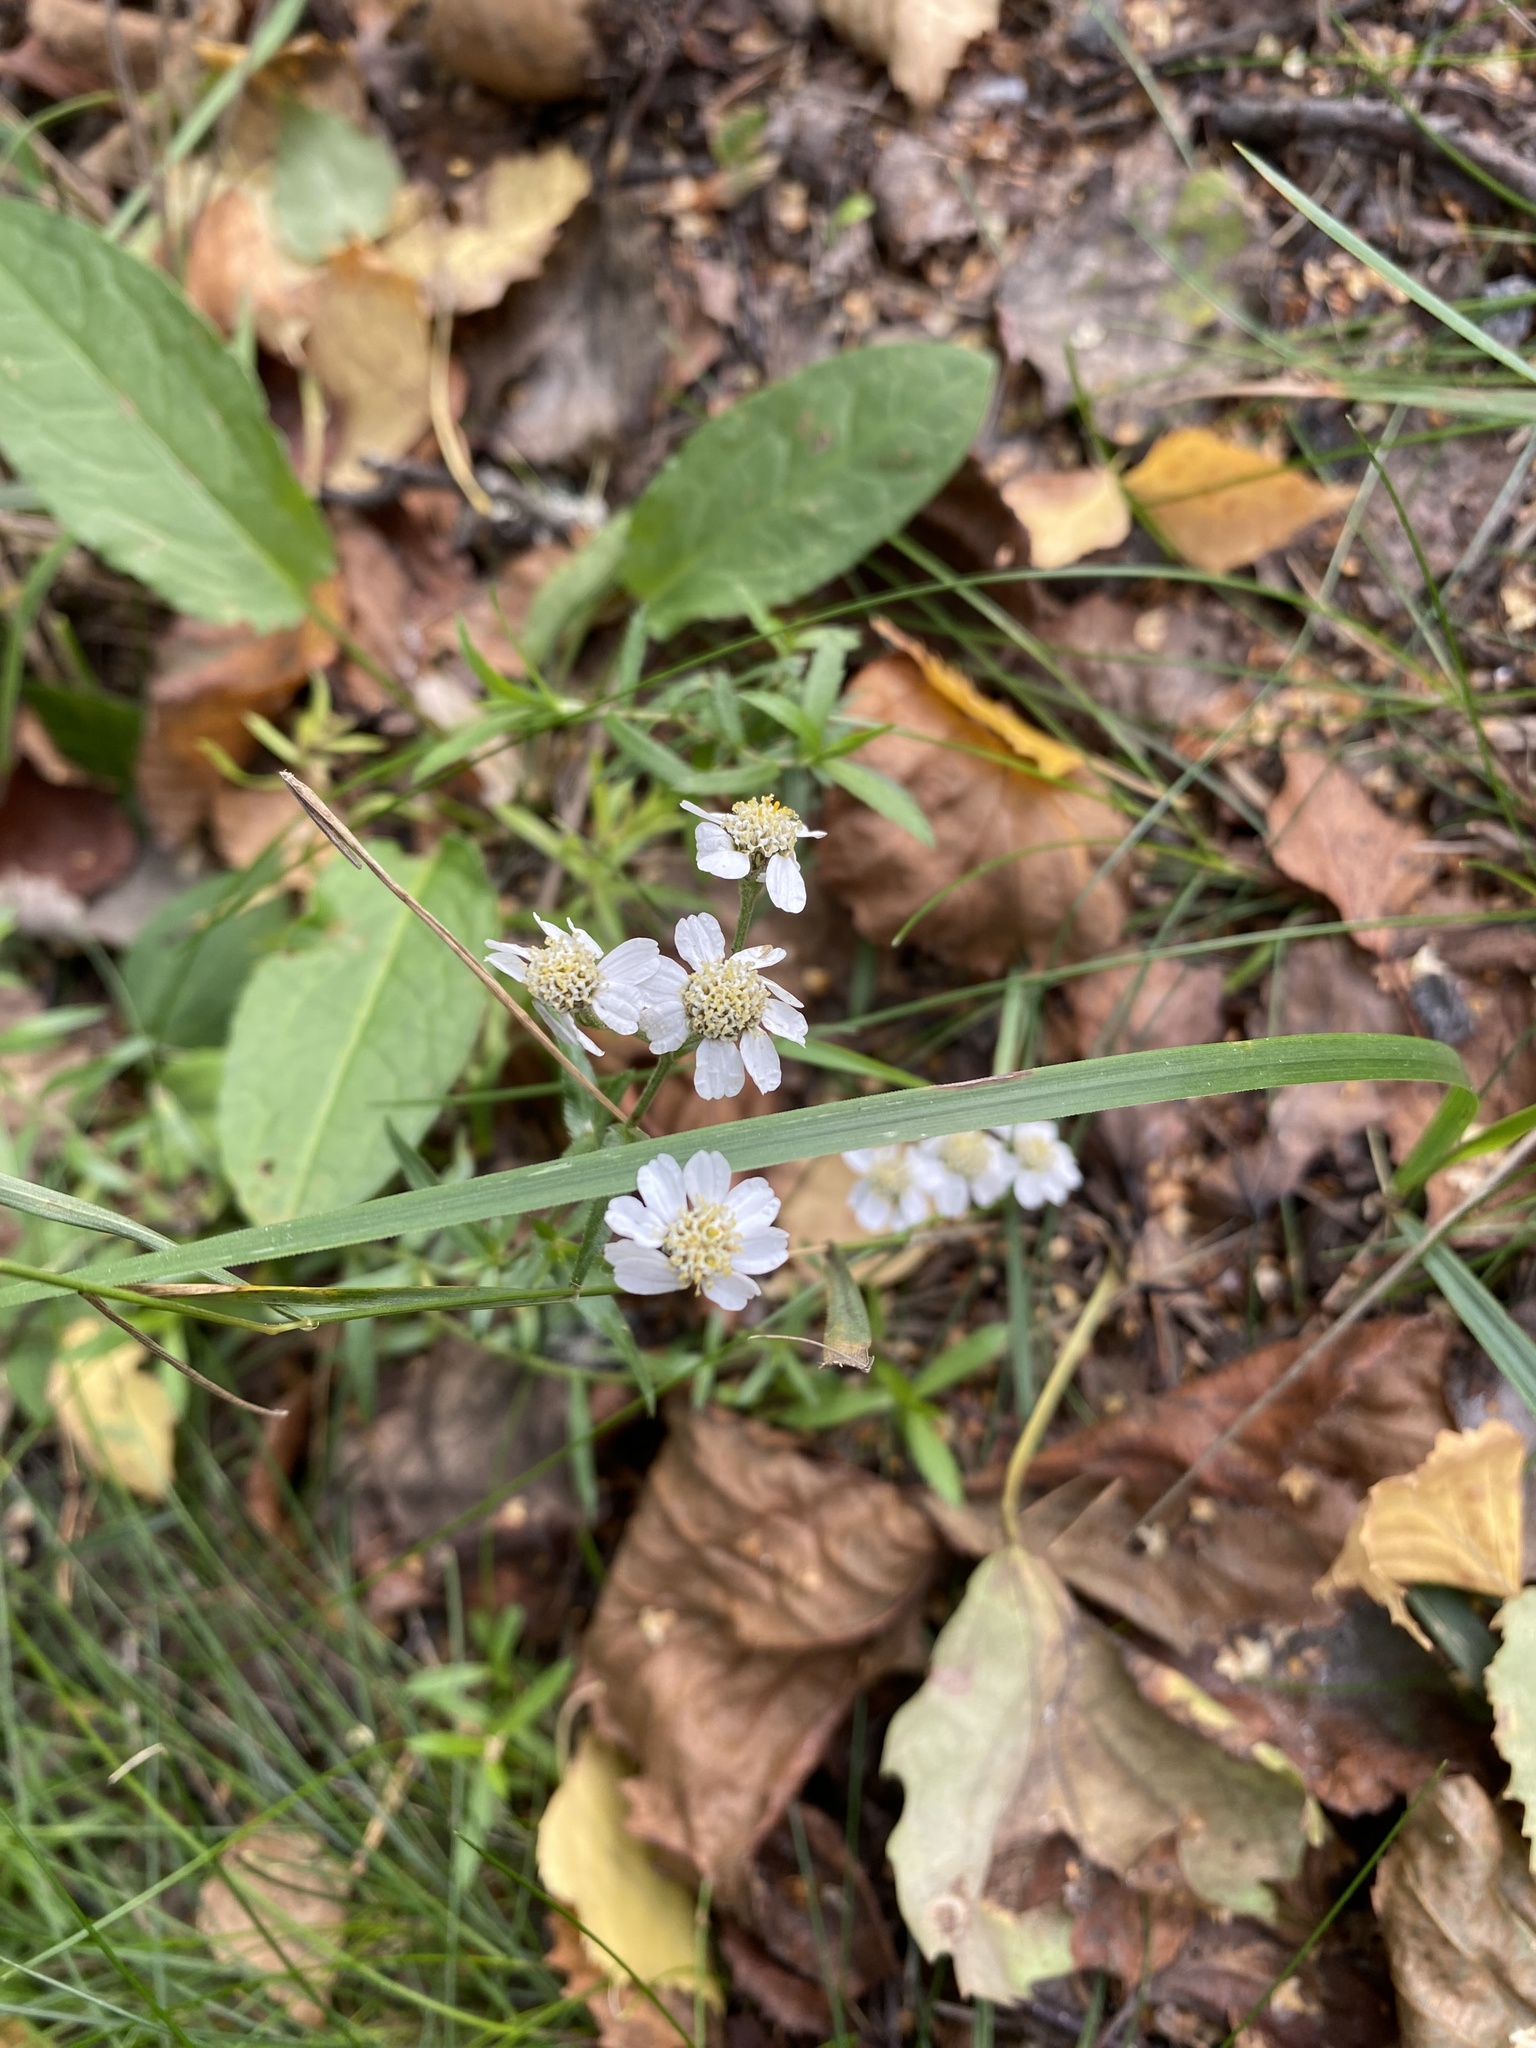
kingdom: Plantae
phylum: Tracheophyta
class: Magnoliopsida
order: Asterales
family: Asteraceae
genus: Achillea
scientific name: Achillea ptarmica
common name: Sneezeweed
